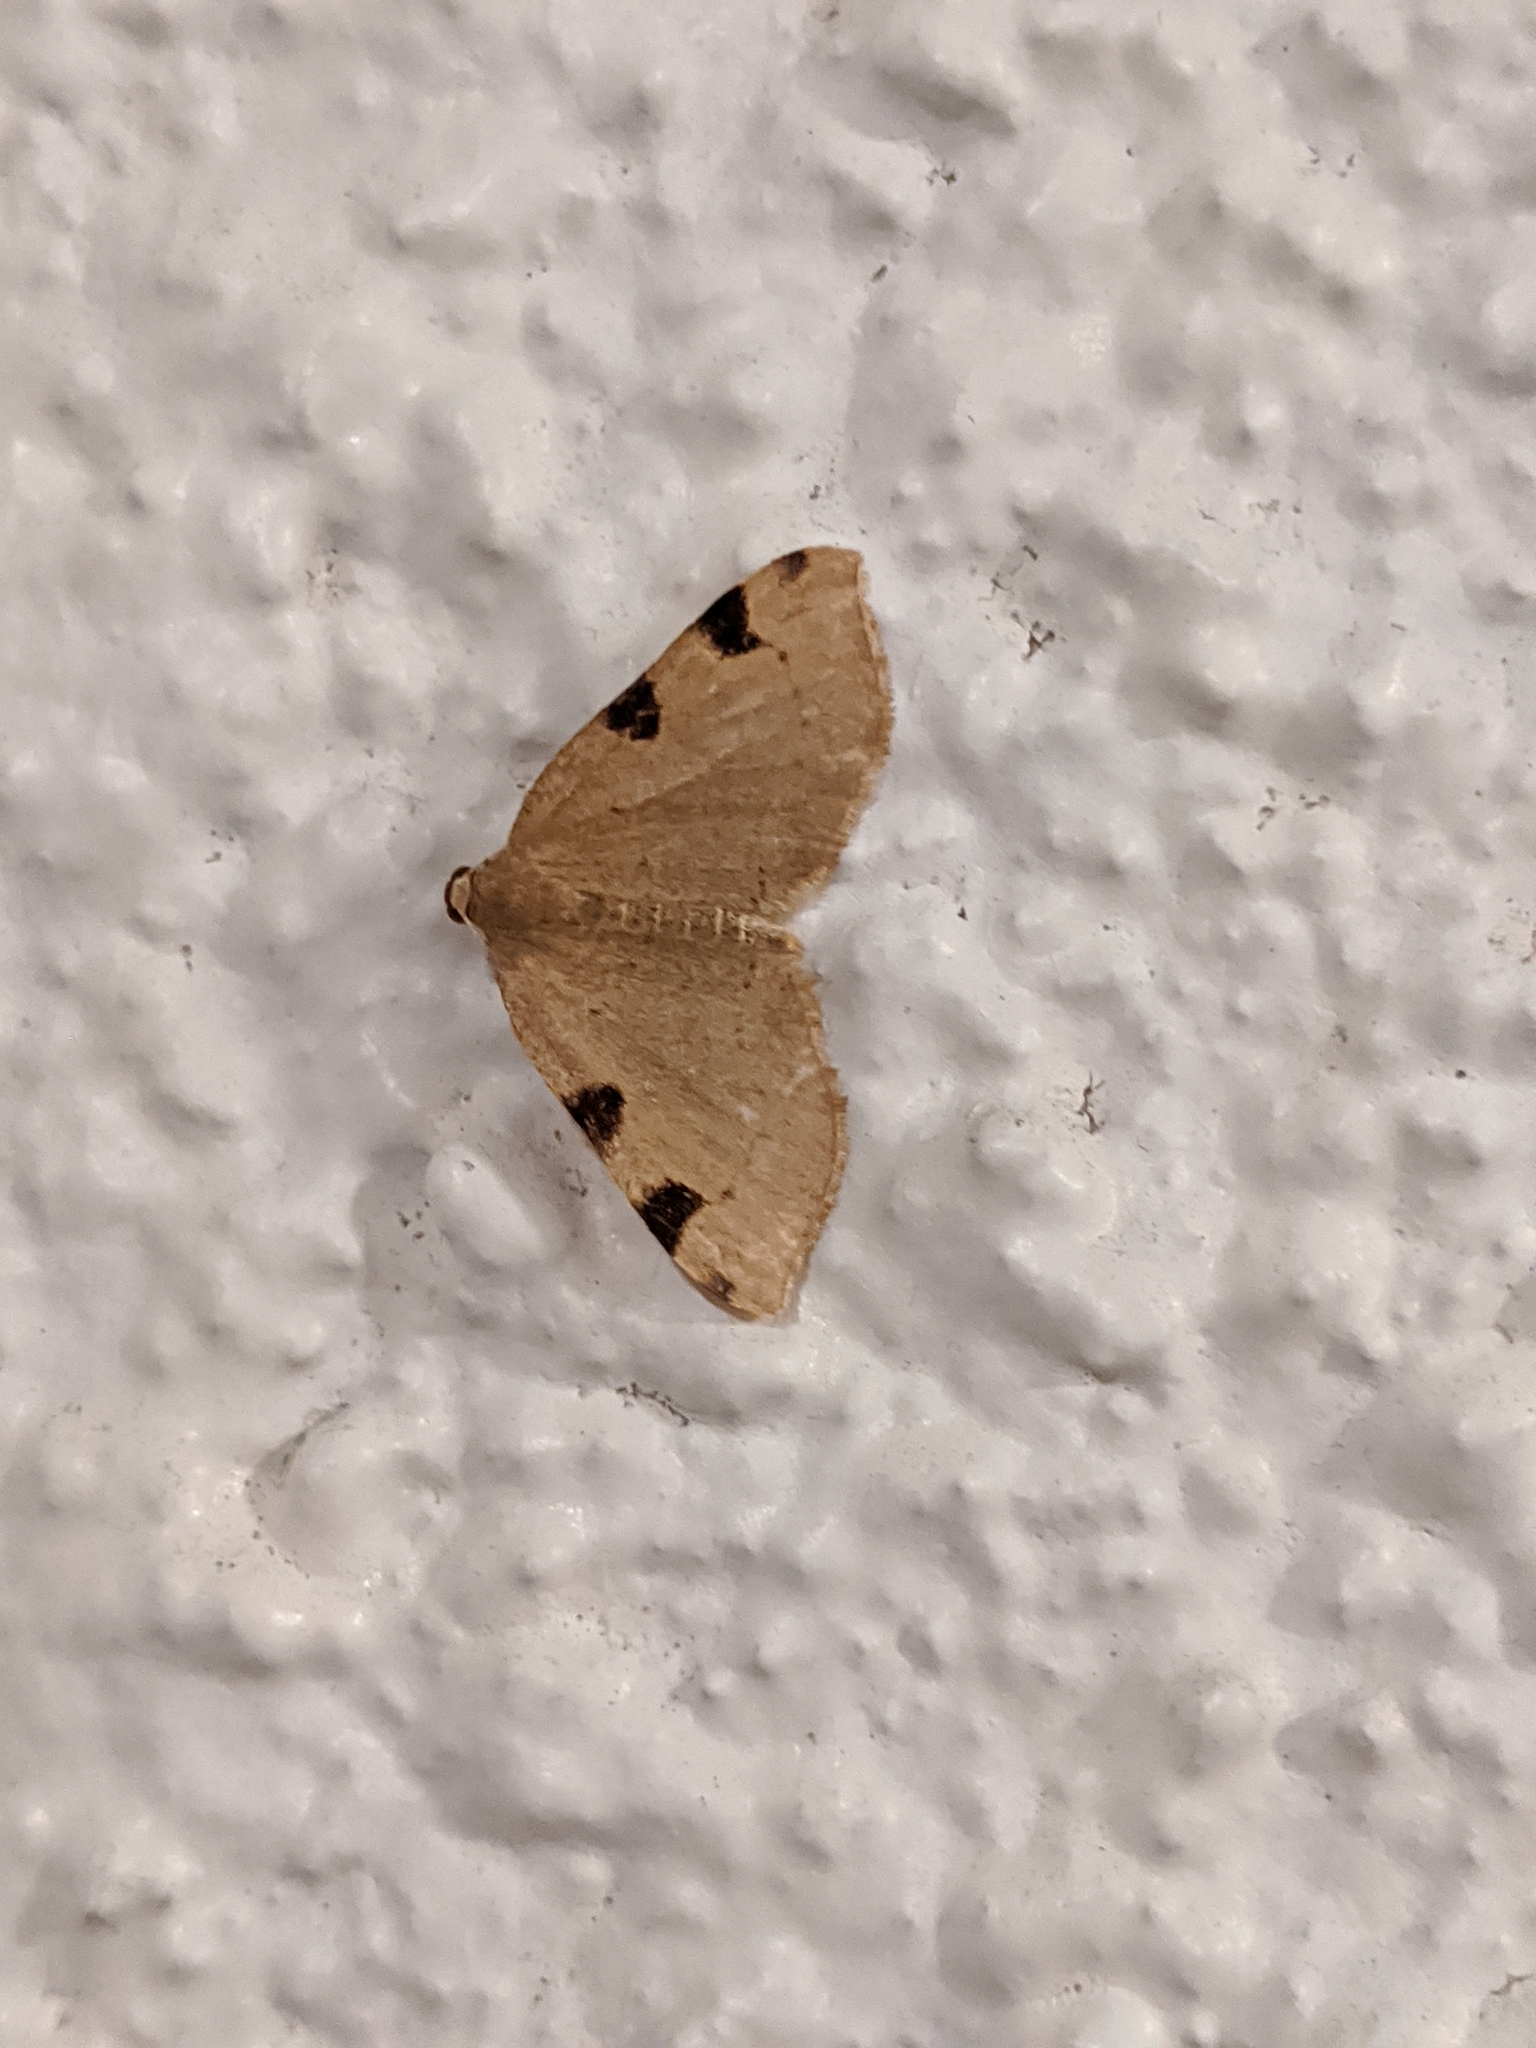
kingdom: Animalia
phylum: Arthropoda
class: Insecta
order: Lepidoptera
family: Geometridae
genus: Heterophleps
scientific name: Heterophleps triguttaria
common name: Three-spotted fillip
